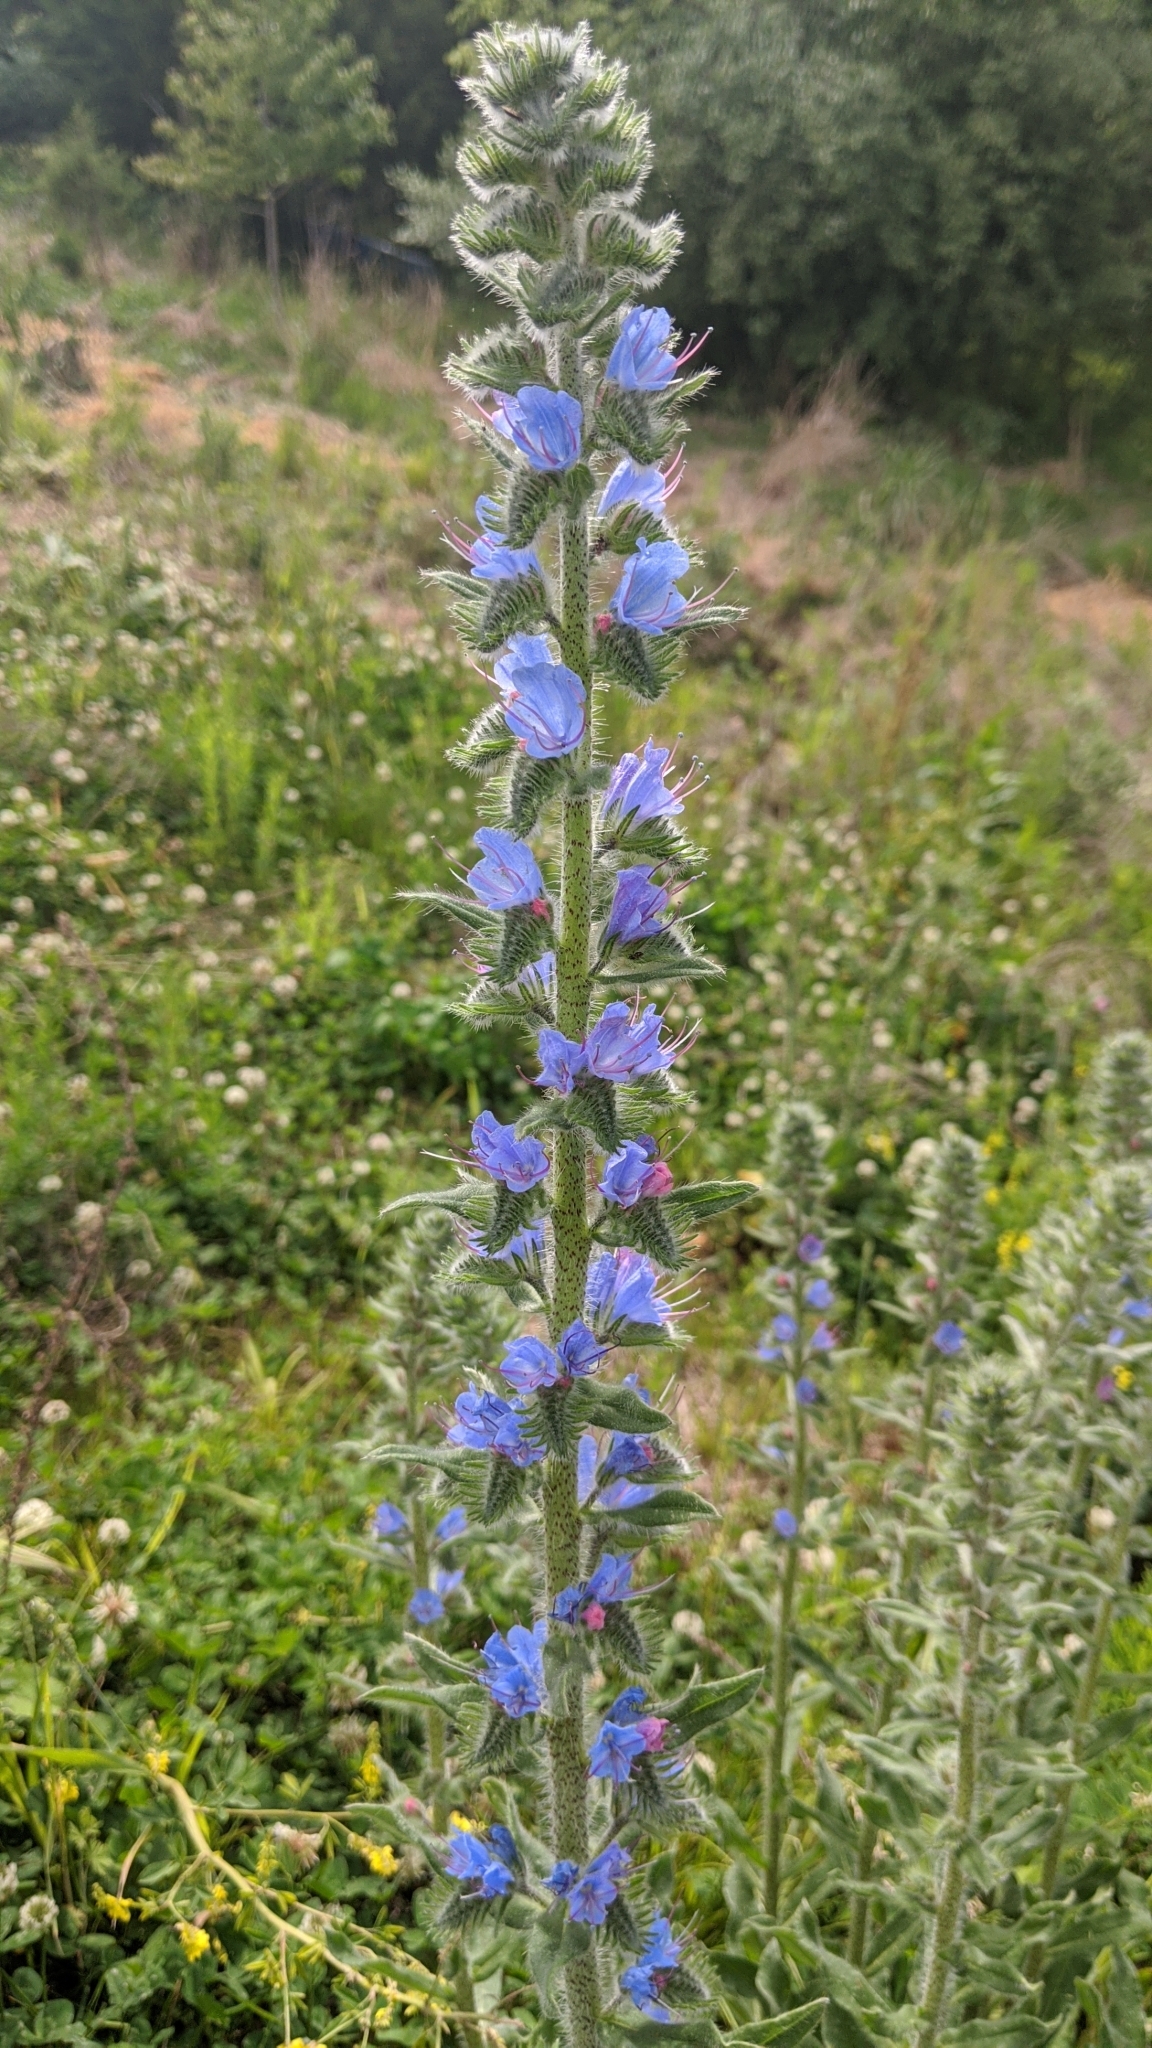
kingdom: Plantae
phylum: Tracheophyta
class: Magnoliopsida
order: Boraginales
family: Boraginaceae
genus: Echium
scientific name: Echium vulgare
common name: Common viper's bugloss
